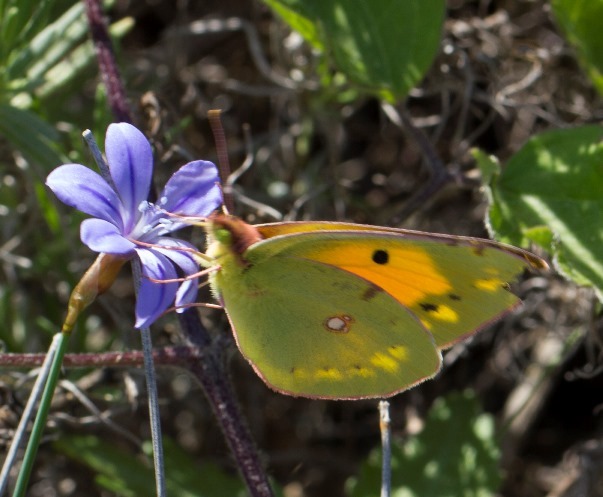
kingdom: Animalia
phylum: Arthropoda
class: Insecta
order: Lepidoptera
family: Pieridae
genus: Colias
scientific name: Colias croceus
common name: Clouded yellow
